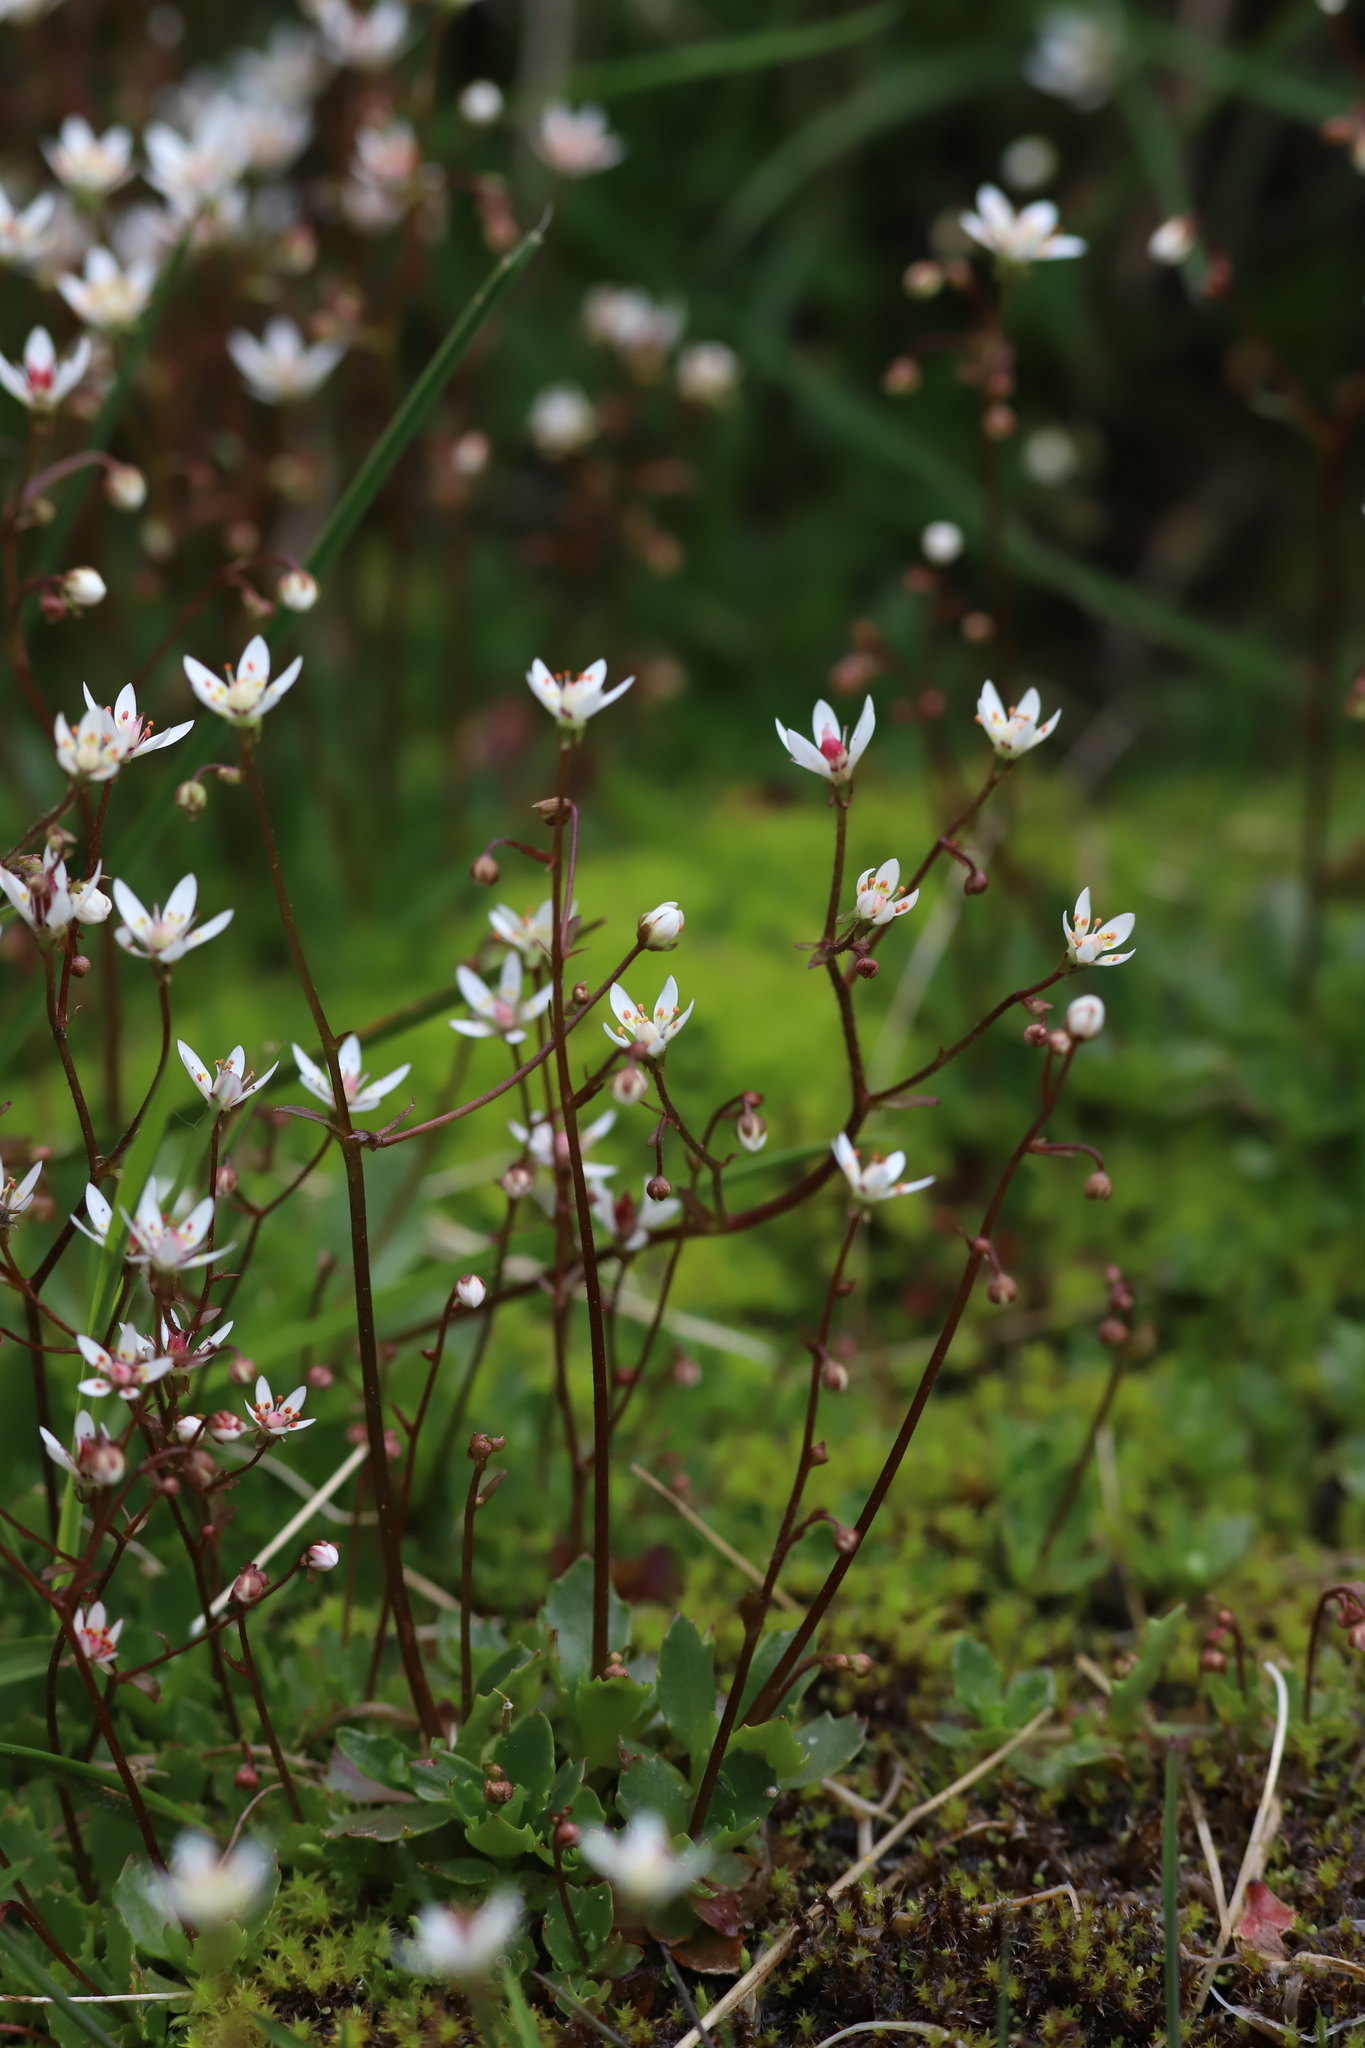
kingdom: Plantae
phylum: Tracheophyta
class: Magnoliopsida
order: Saxifragales
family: Saxifragaceae
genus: Micranthes
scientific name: Micranthes stellaris
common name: Starry saxifrage
